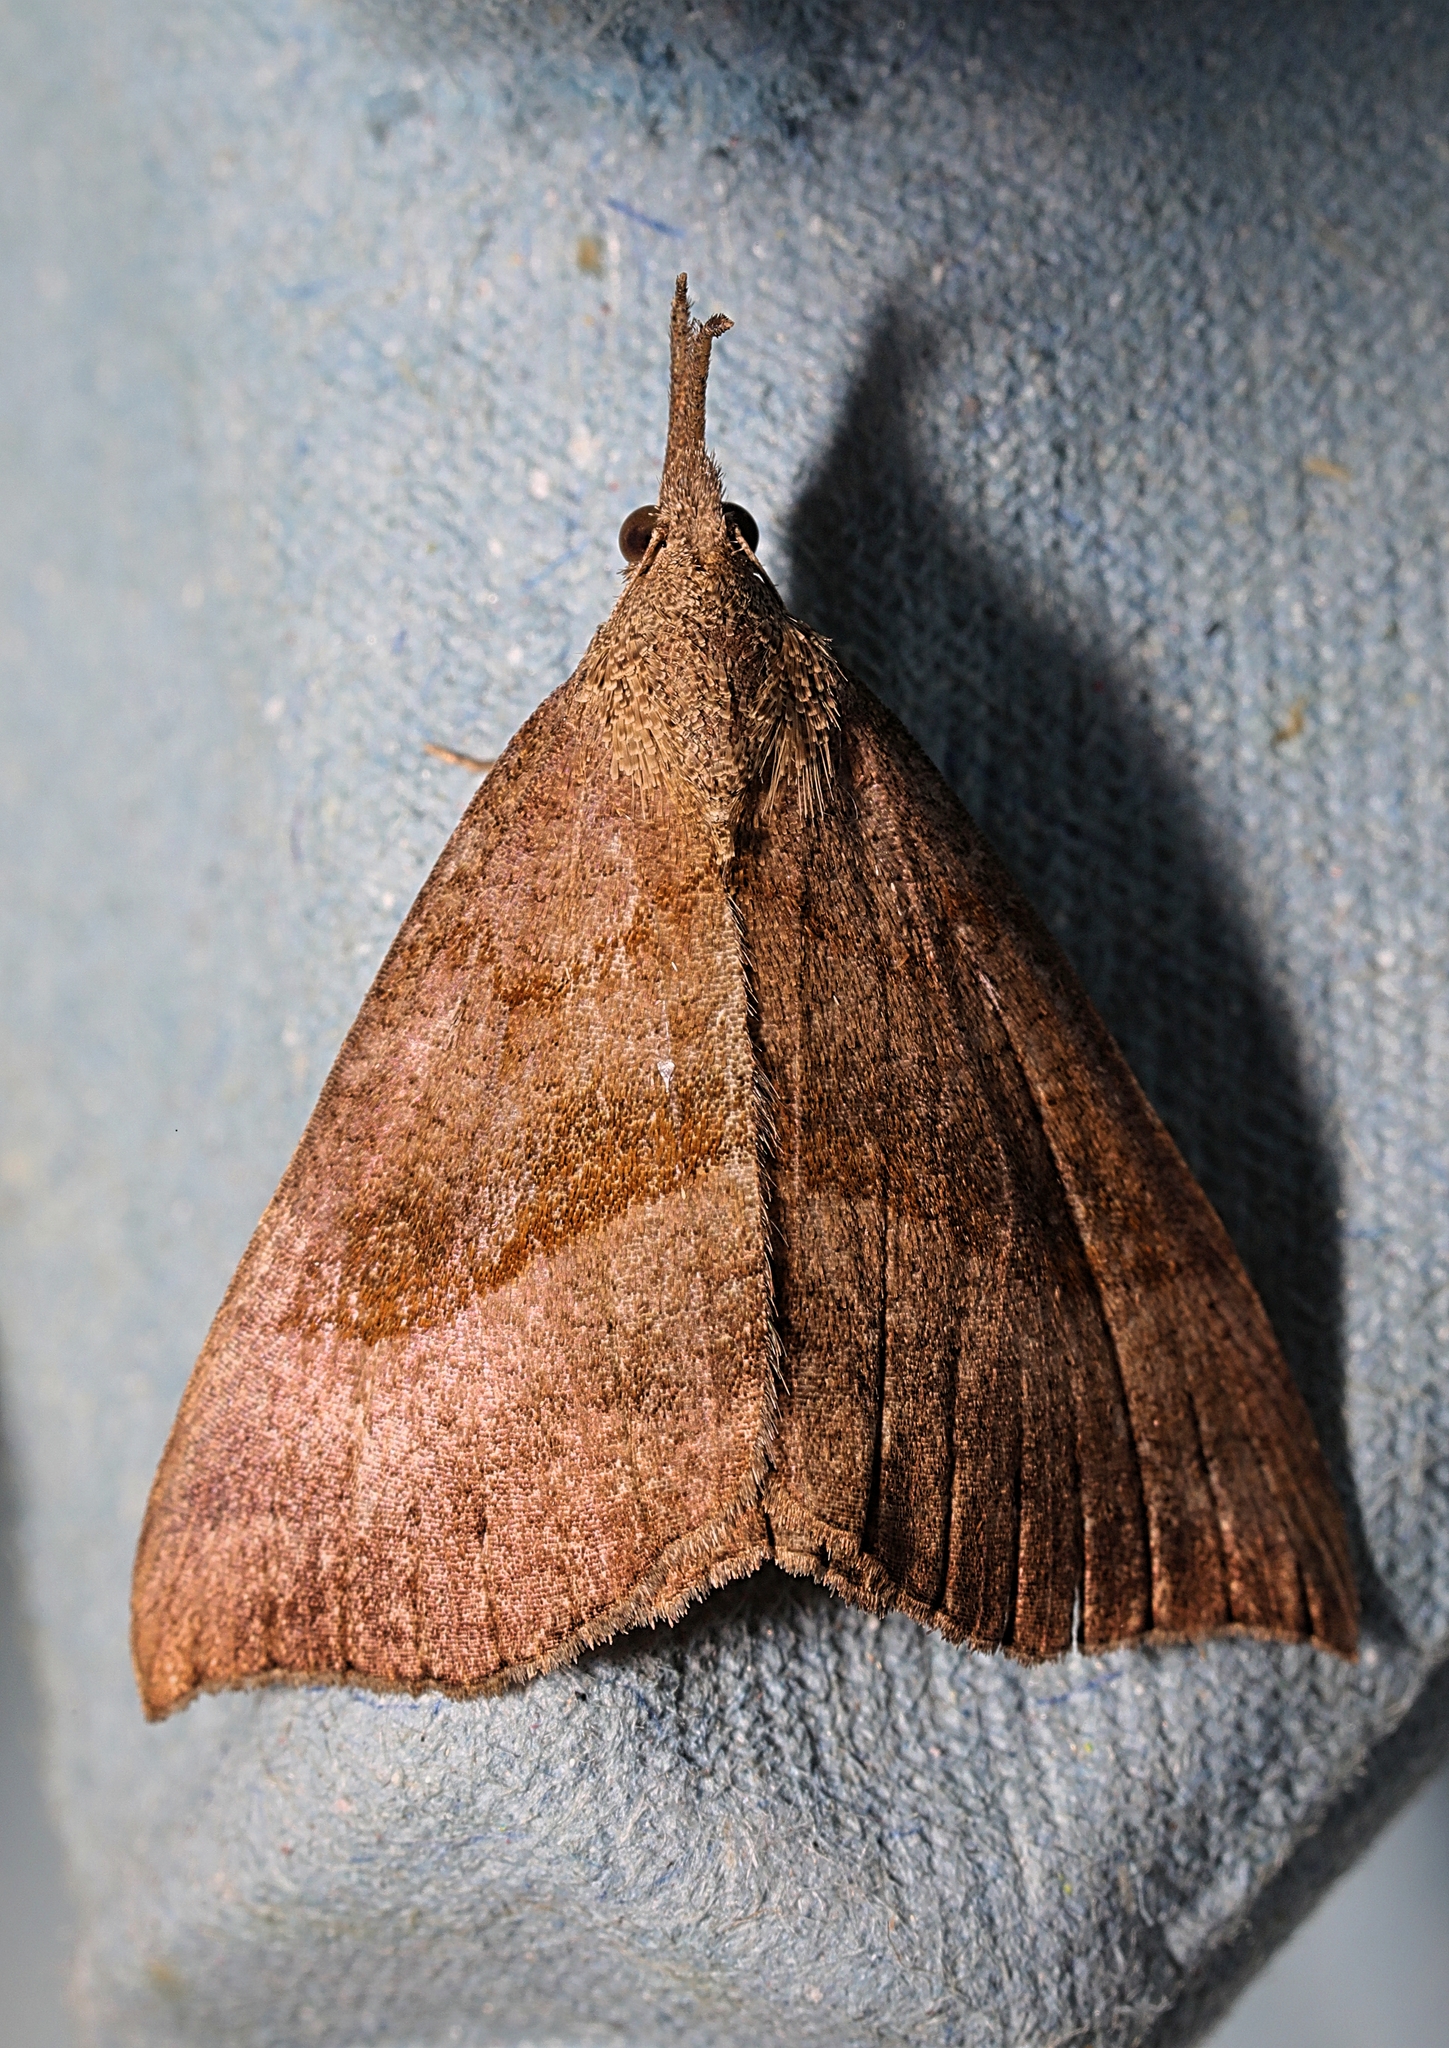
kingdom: Animalia
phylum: Arthropoda
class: Insecta
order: Lepidoptera
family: Erebidae
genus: Hypena
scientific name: Hypena proboscidalis
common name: Snout
